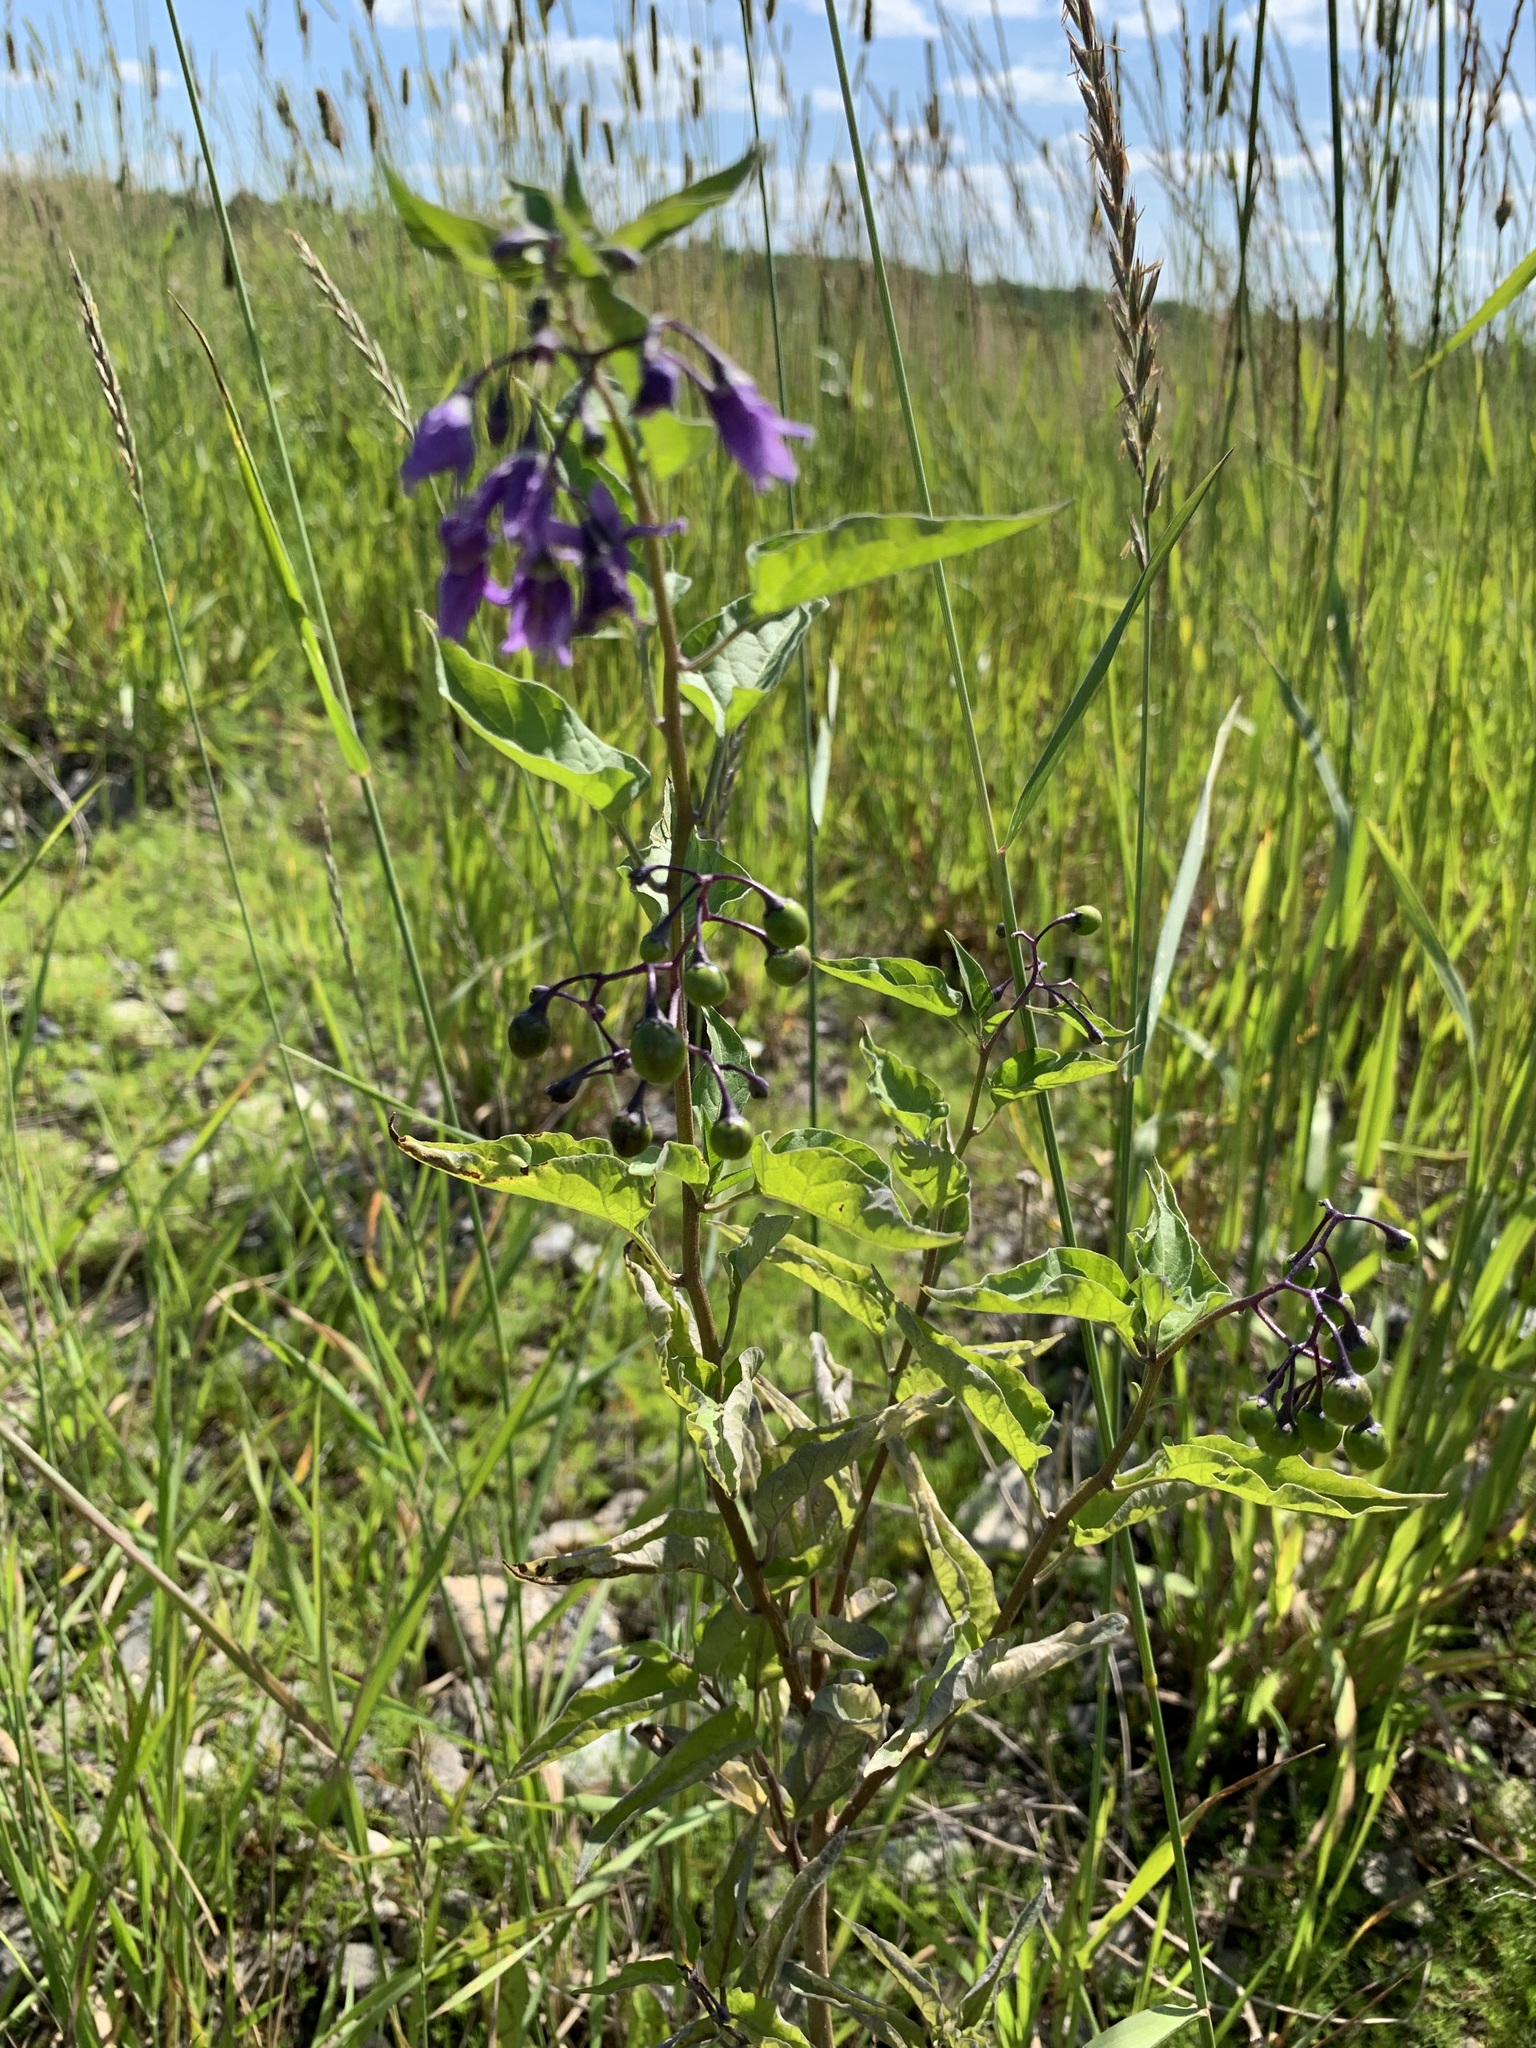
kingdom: Plantae
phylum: Tracheophyta
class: Magnoliopsida
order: Solanales
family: Solanaceae
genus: Solanum
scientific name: Solanum dulcamara
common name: Climbing nightshade
